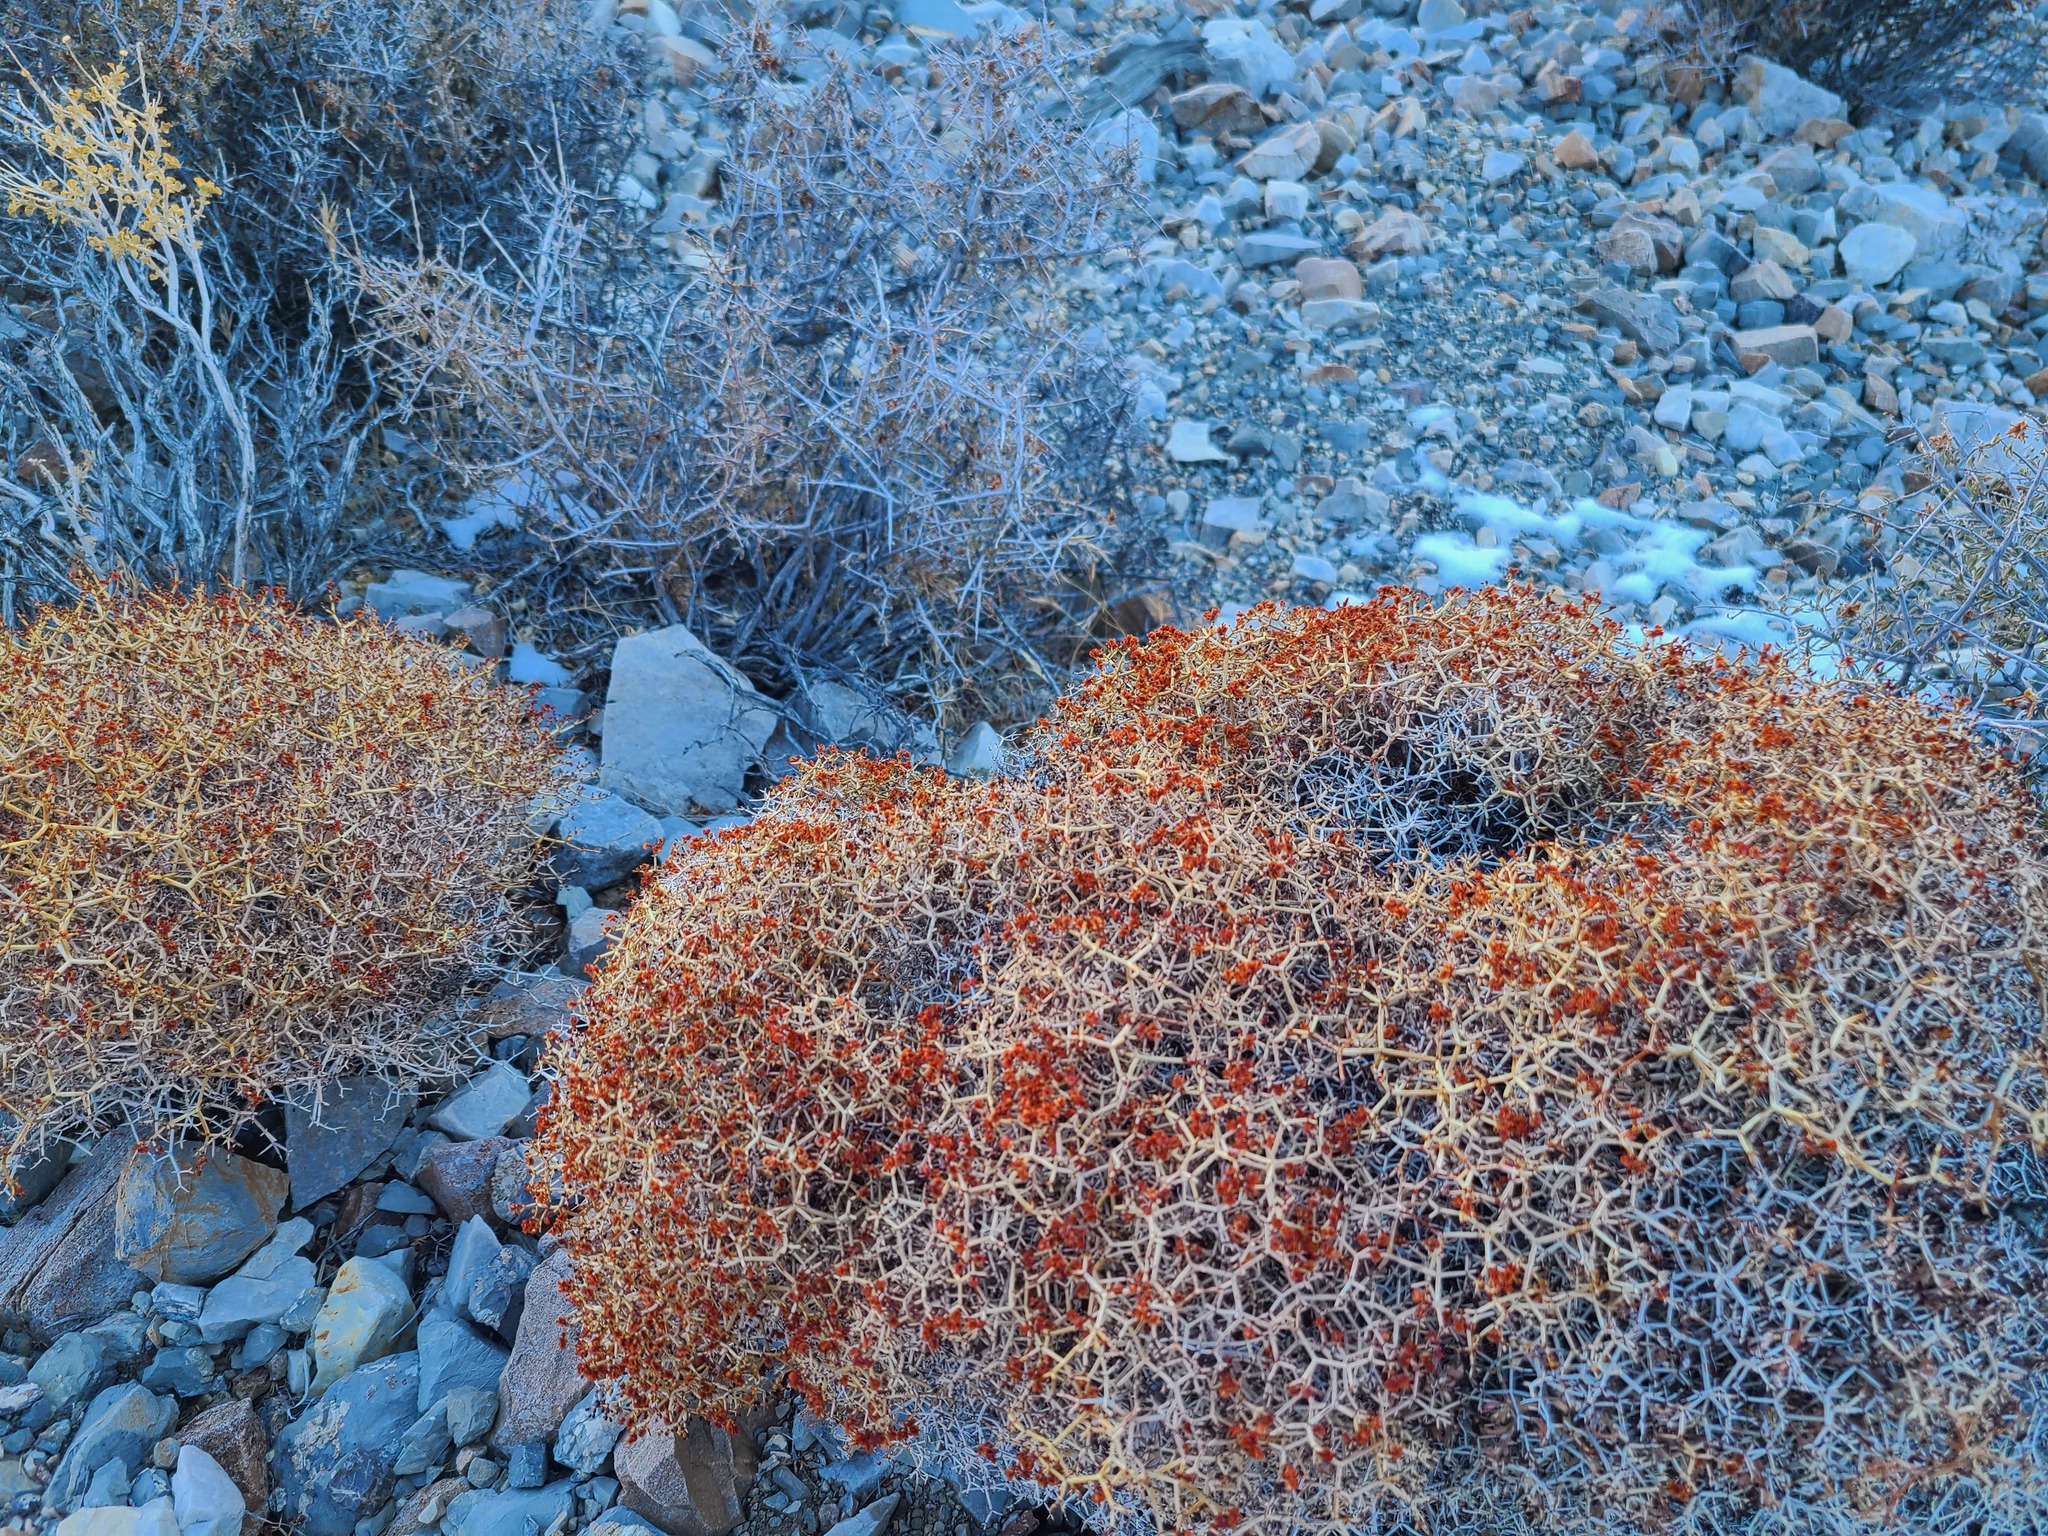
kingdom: Plantae
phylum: Tracheophyta
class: Magnoliopsida
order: Caryophyllales
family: Polygonaceae
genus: Eriogonum
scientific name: Eriogonum heermannii
